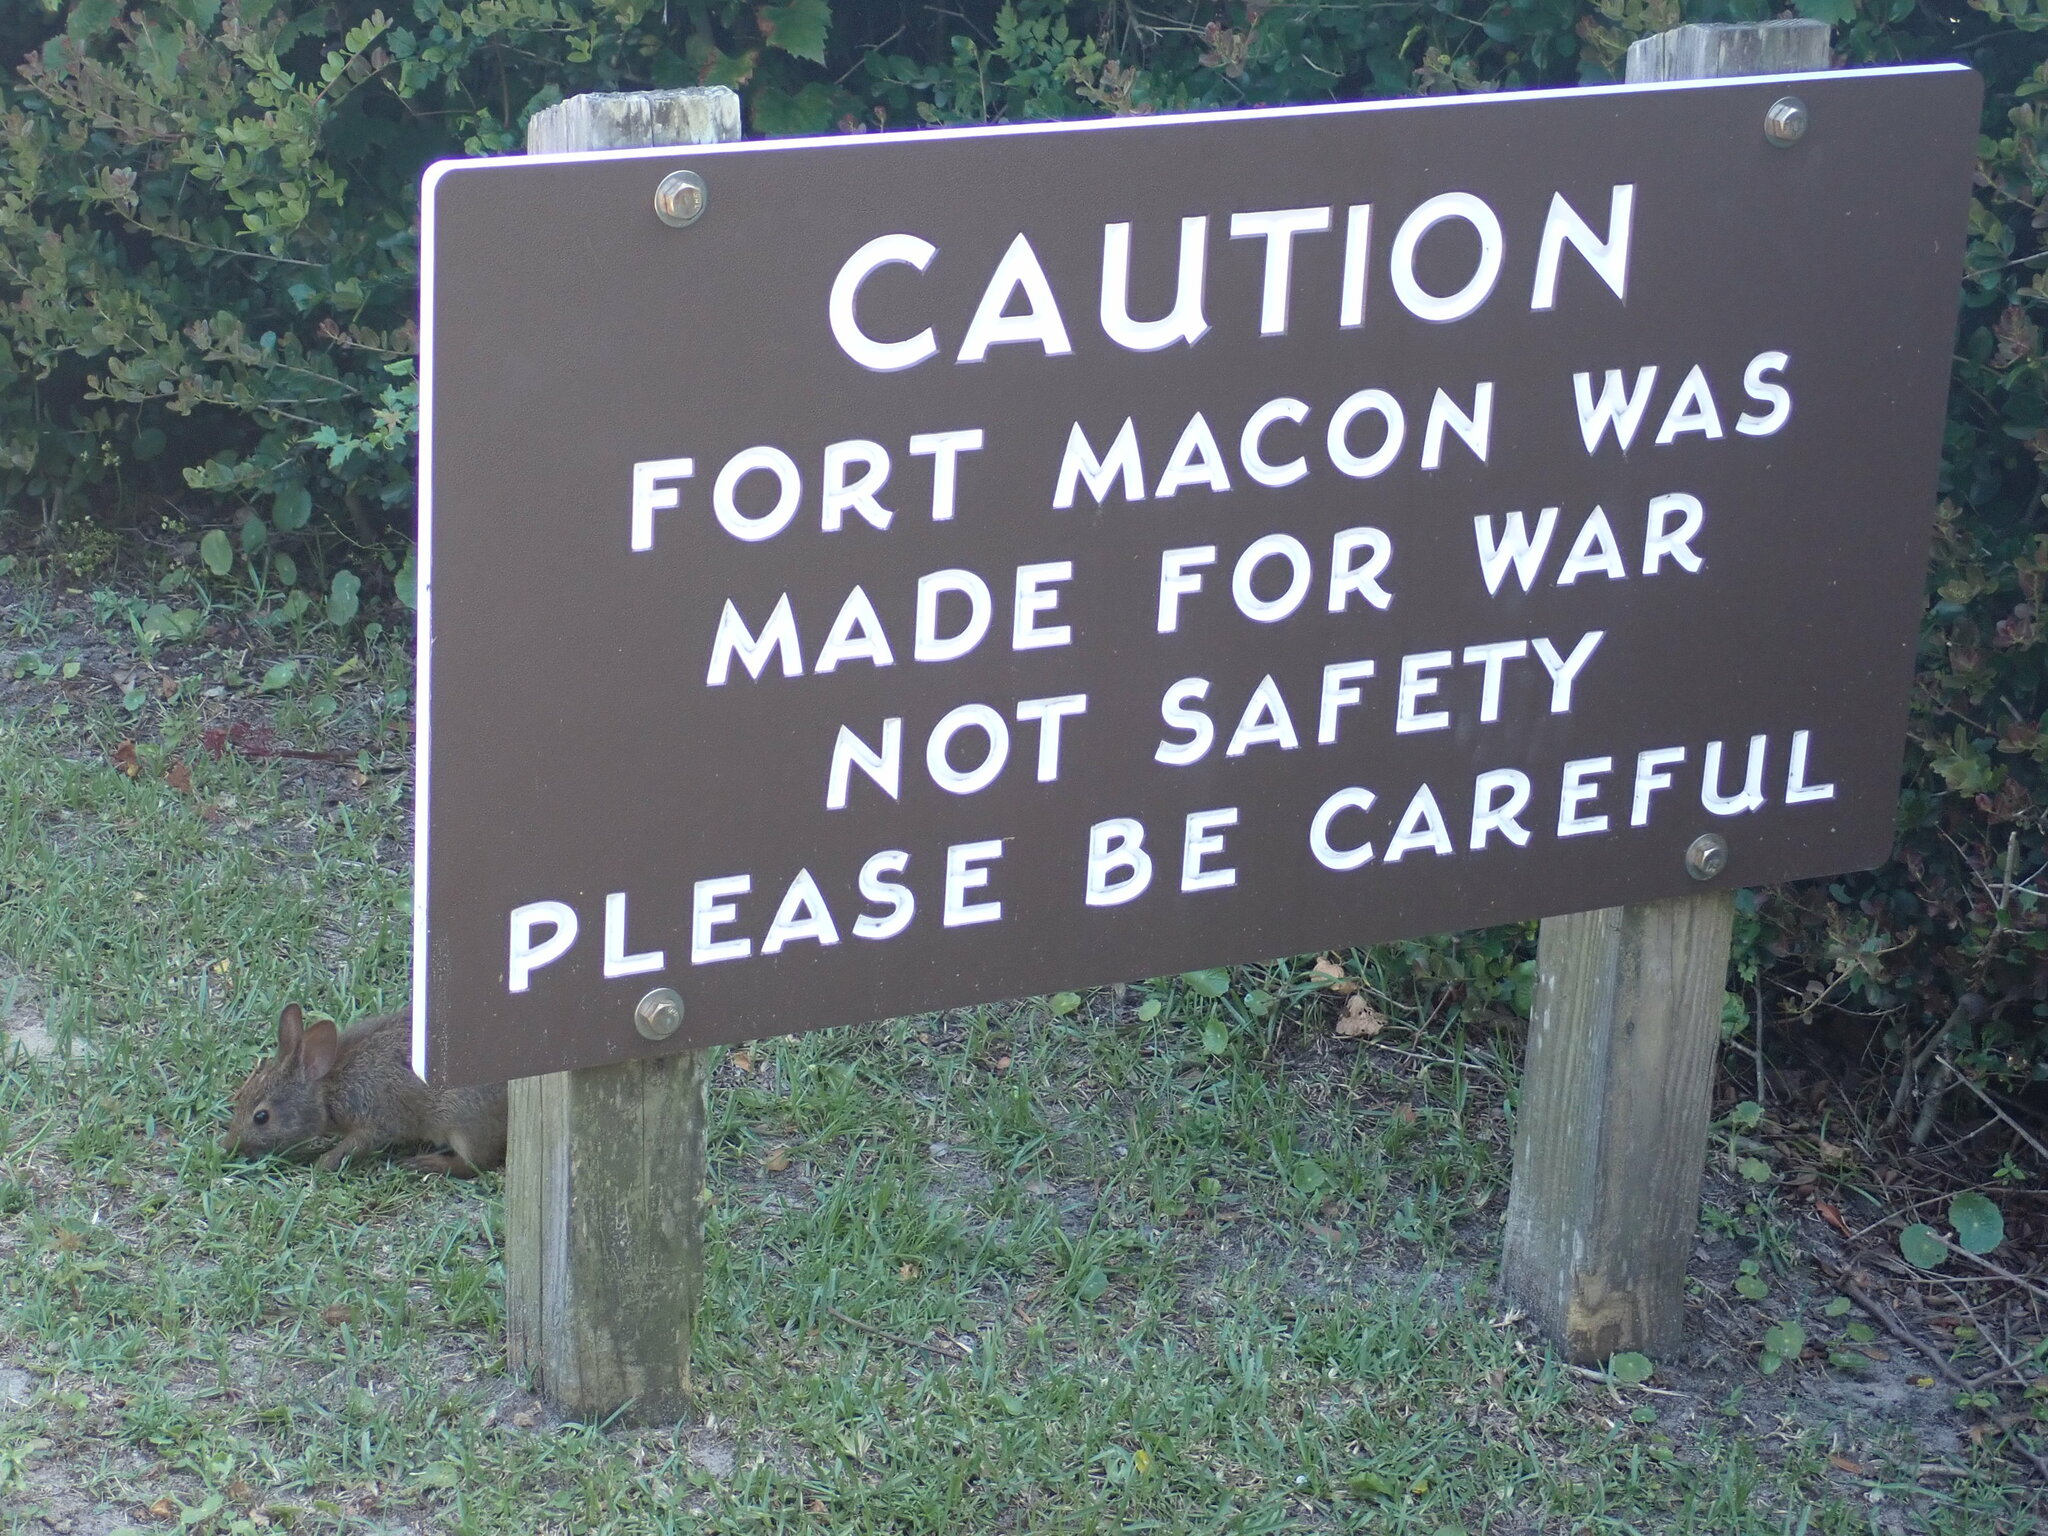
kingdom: Animalia
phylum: Chordata
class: Mammalia
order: Lagomorpha
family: Leporidae
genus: Sylvilagus
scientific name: Sylvilagus palustris
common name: Marsh rabbit
